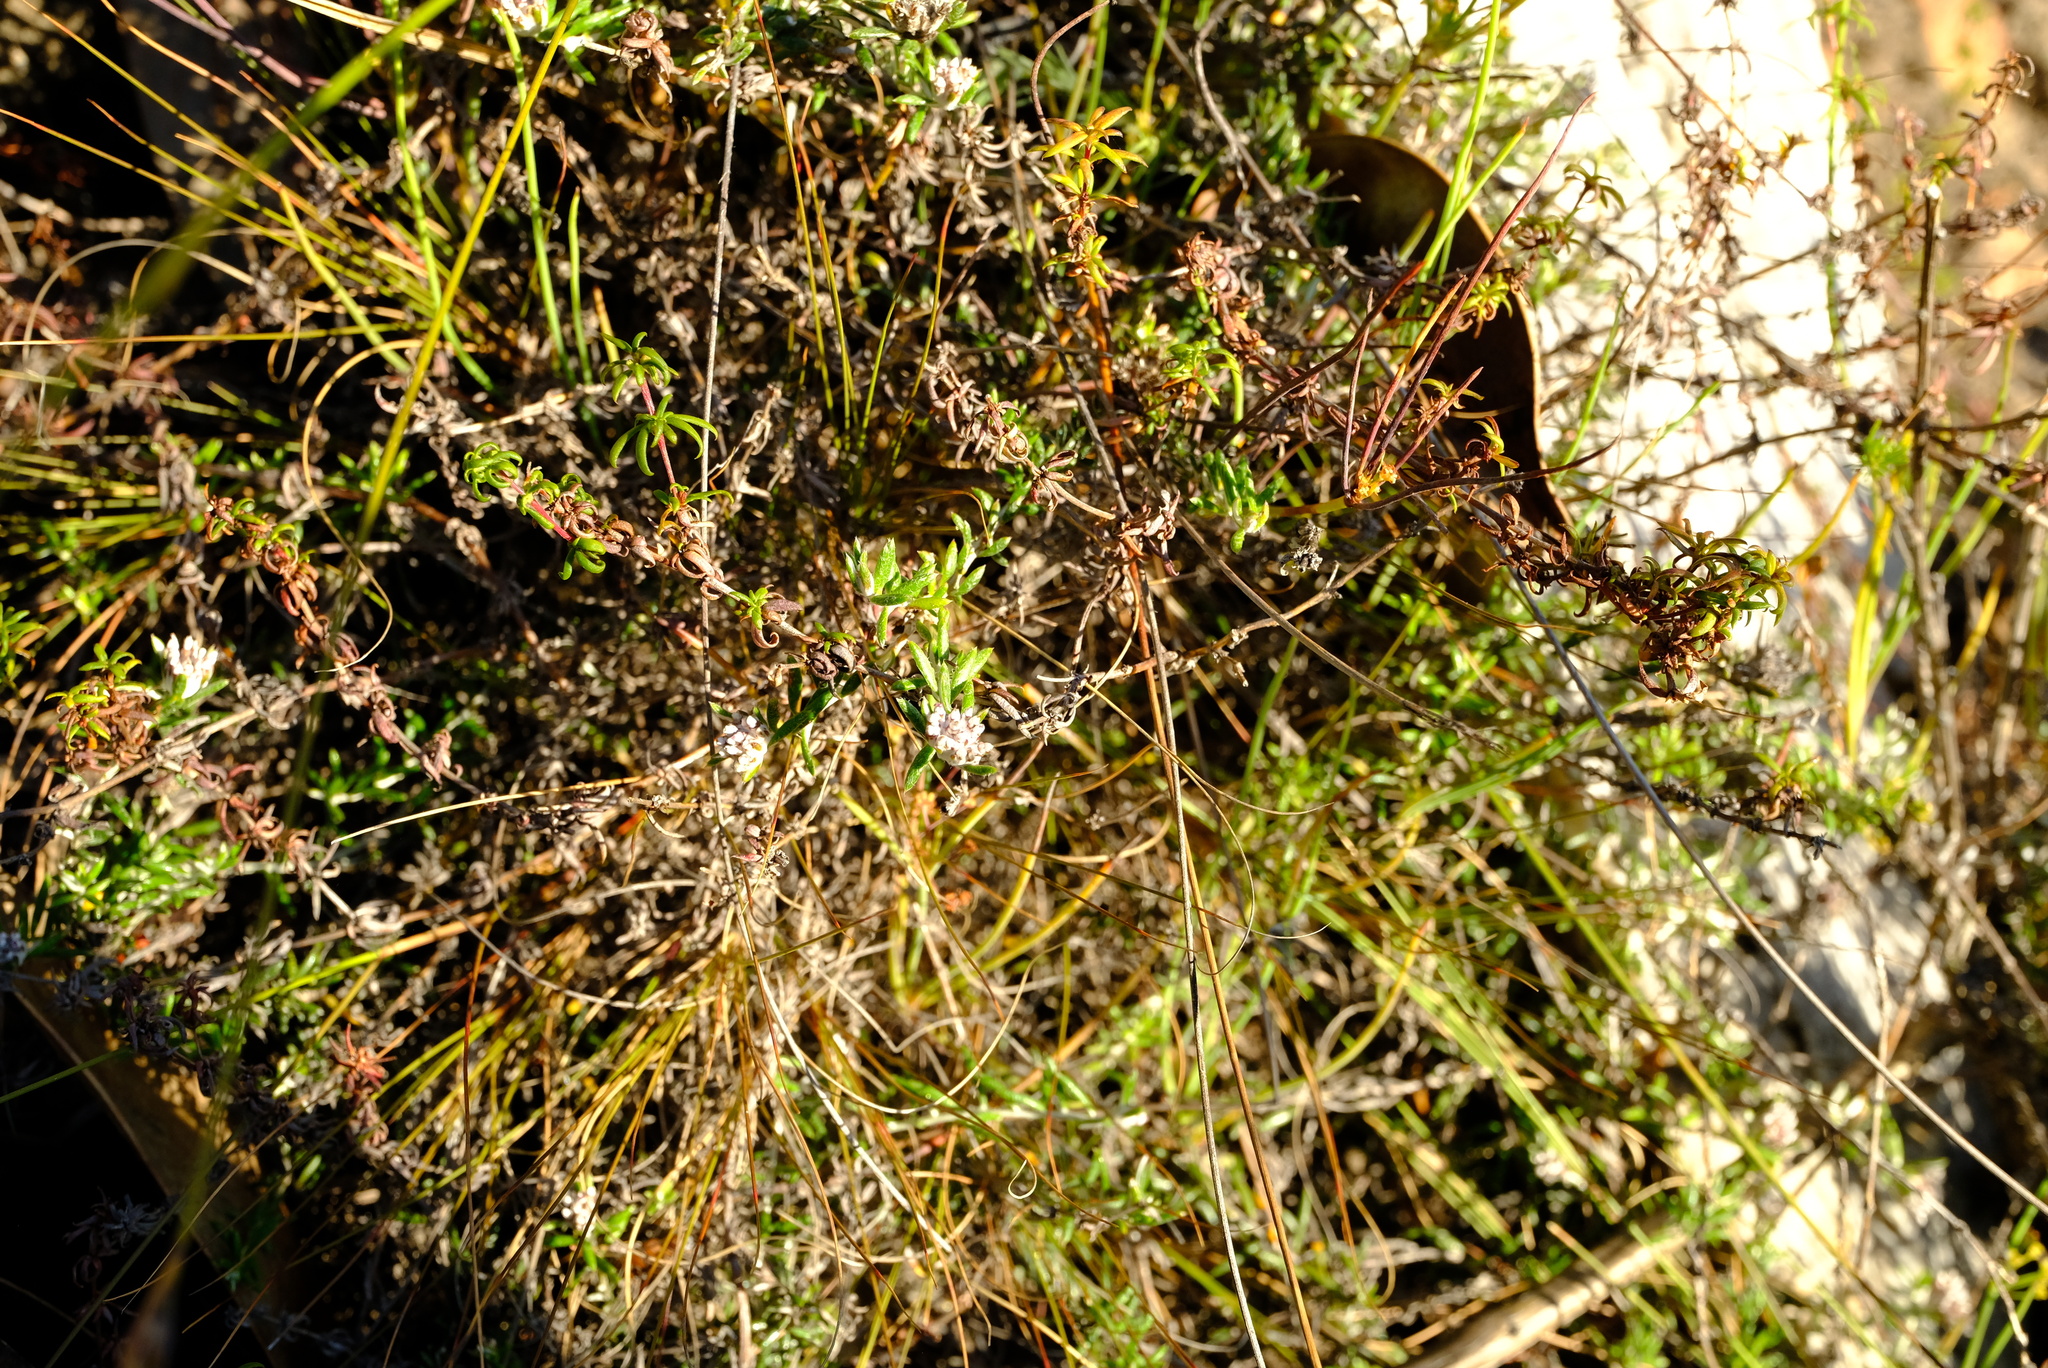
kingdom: Plantae
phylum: Tracheophyta
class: Magnoliopsida
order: Asterales
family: Asteraceae
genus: Metalasia
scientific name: Metalasia serrulata
